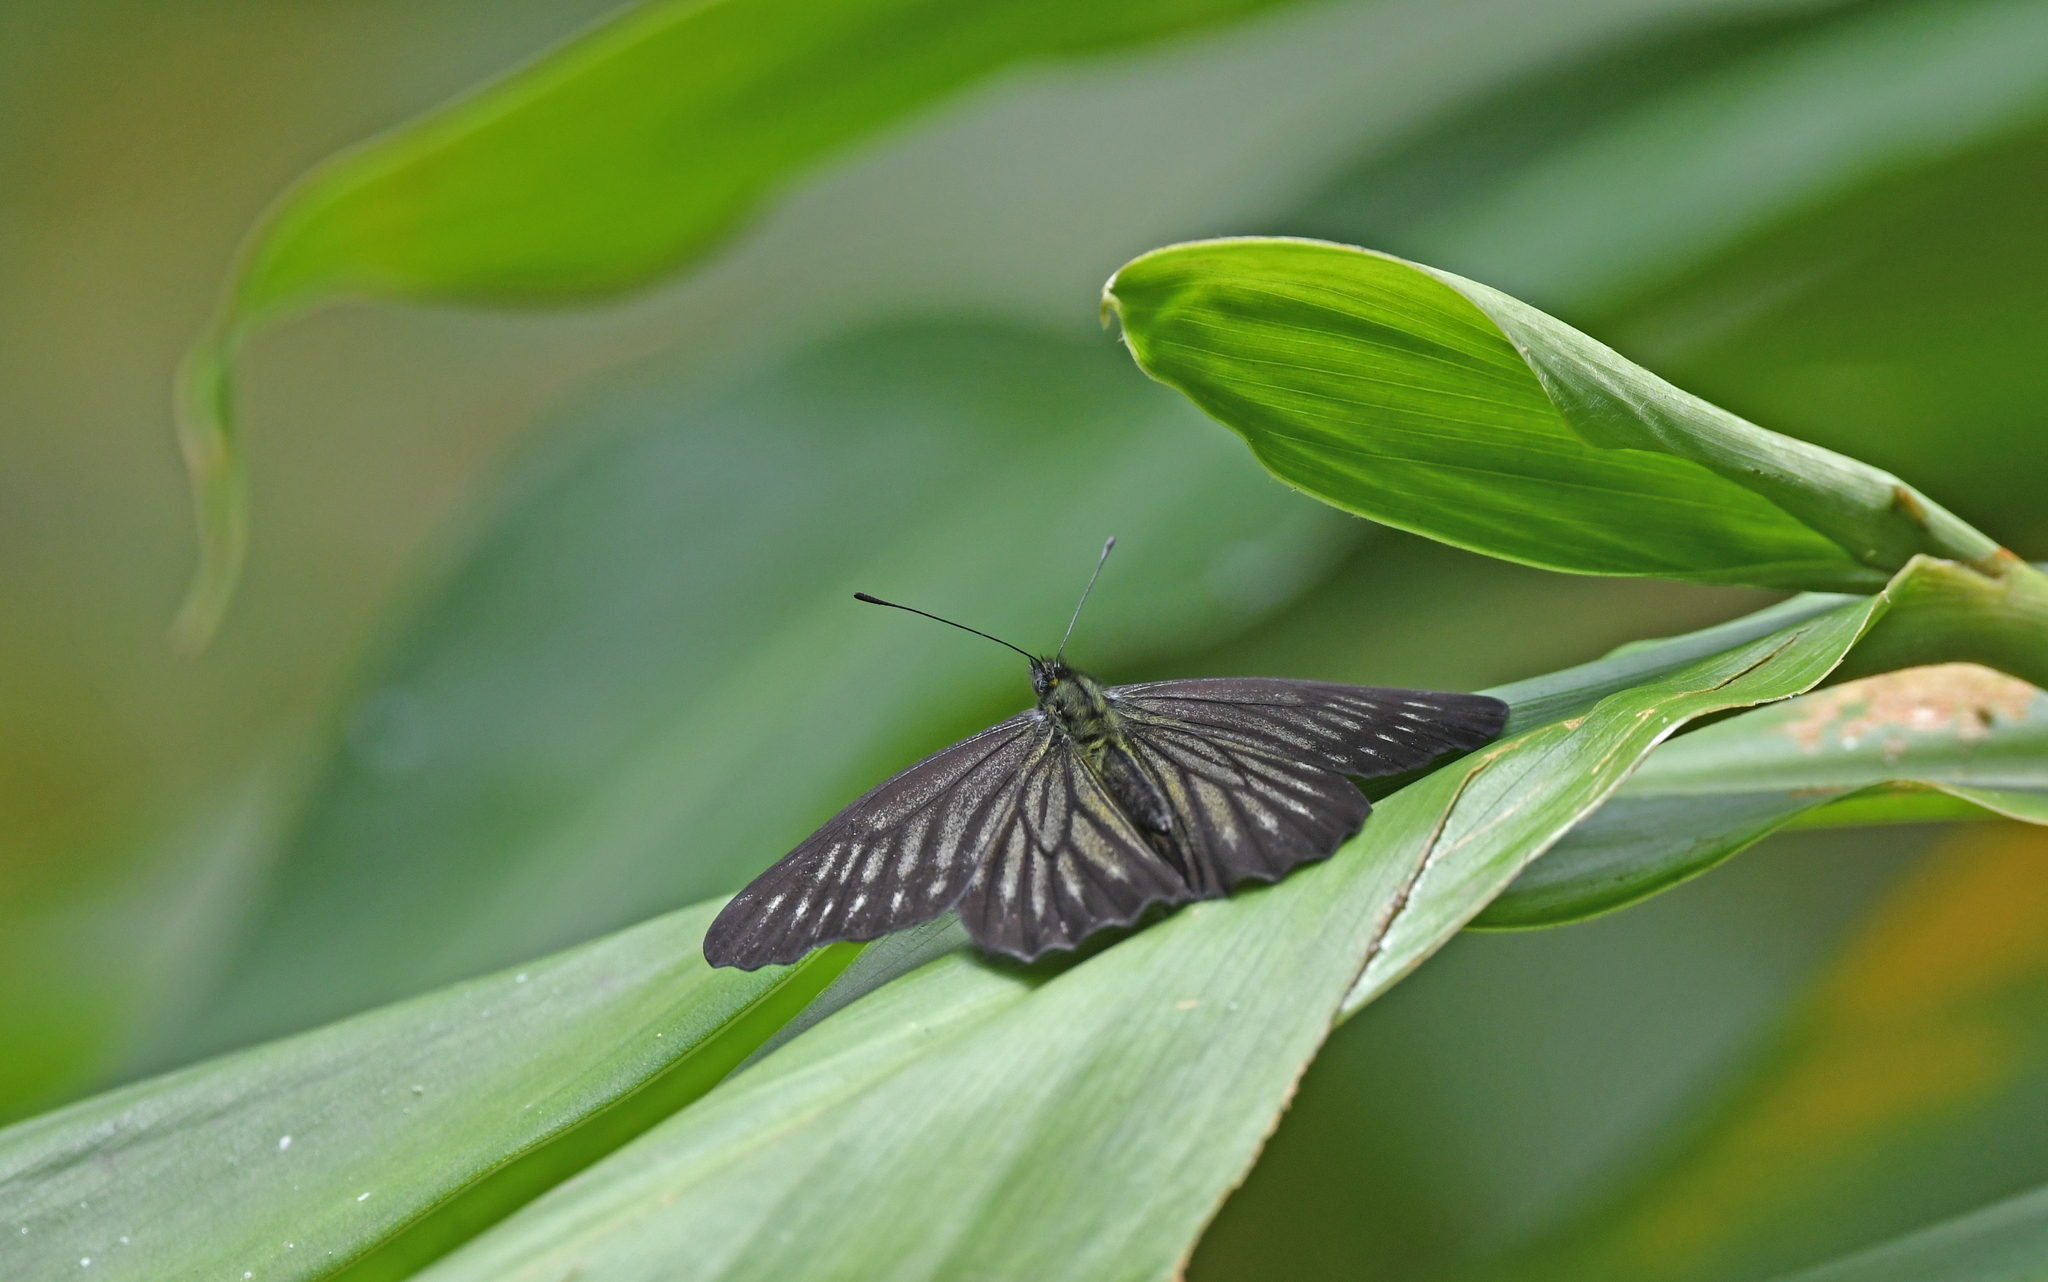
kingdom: Animalia
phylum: Arthropoda
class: Insecta
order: Lepidoptera
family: Pieridae
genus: Catasticta
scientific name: Catasticta ctemene
